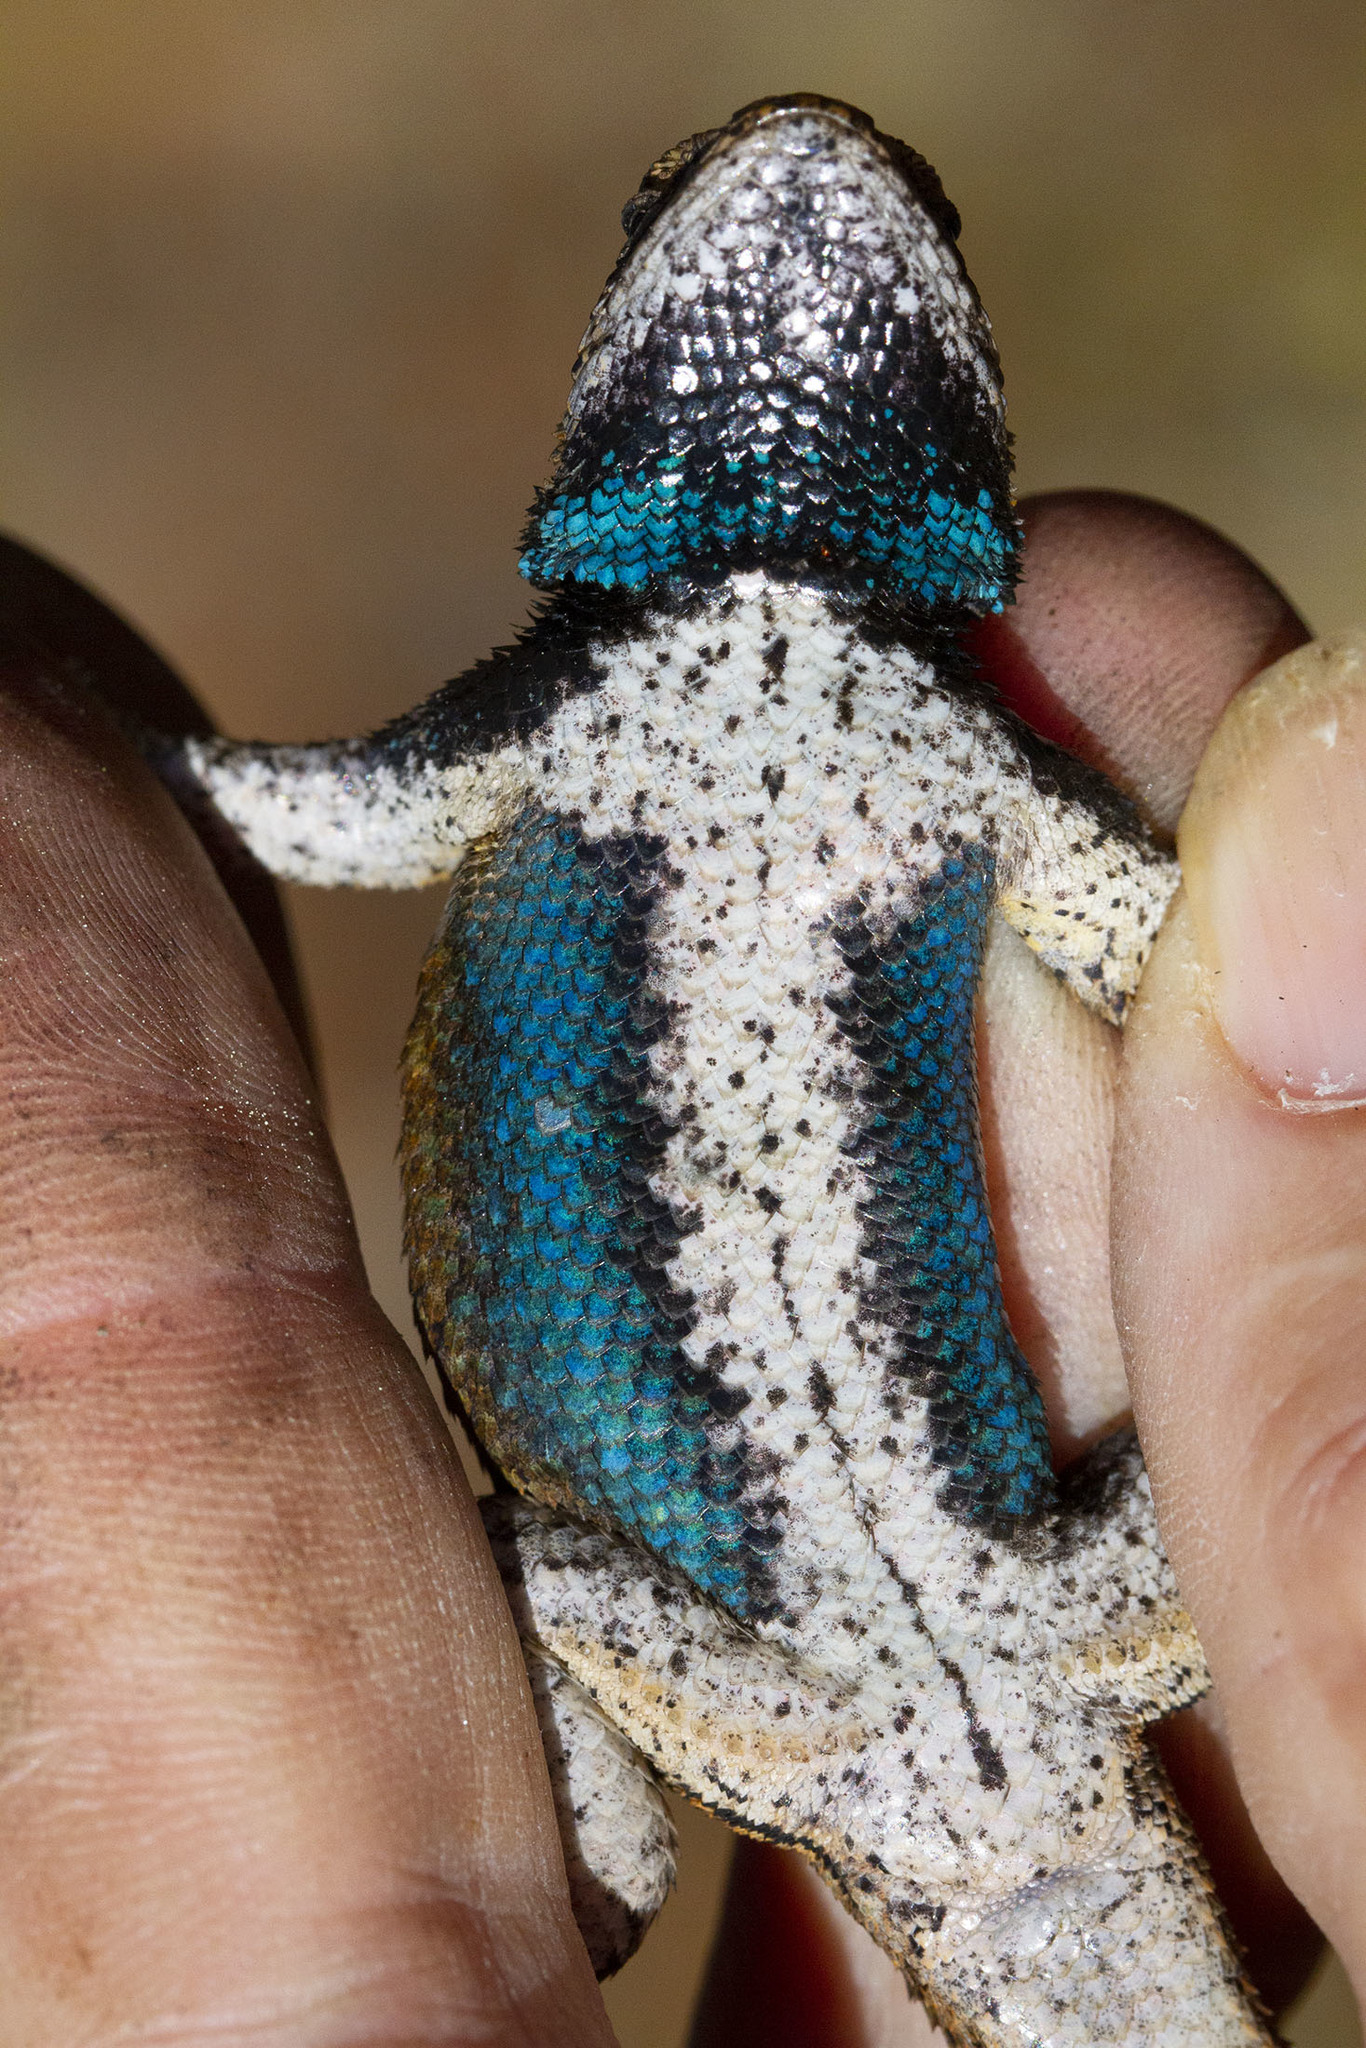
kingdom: Animalia
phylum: Chordata
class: Squamata
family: Phrynosomatidae
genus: Sceloporus
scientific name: Sceloporus undulatus
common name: Eastern fence lizard
